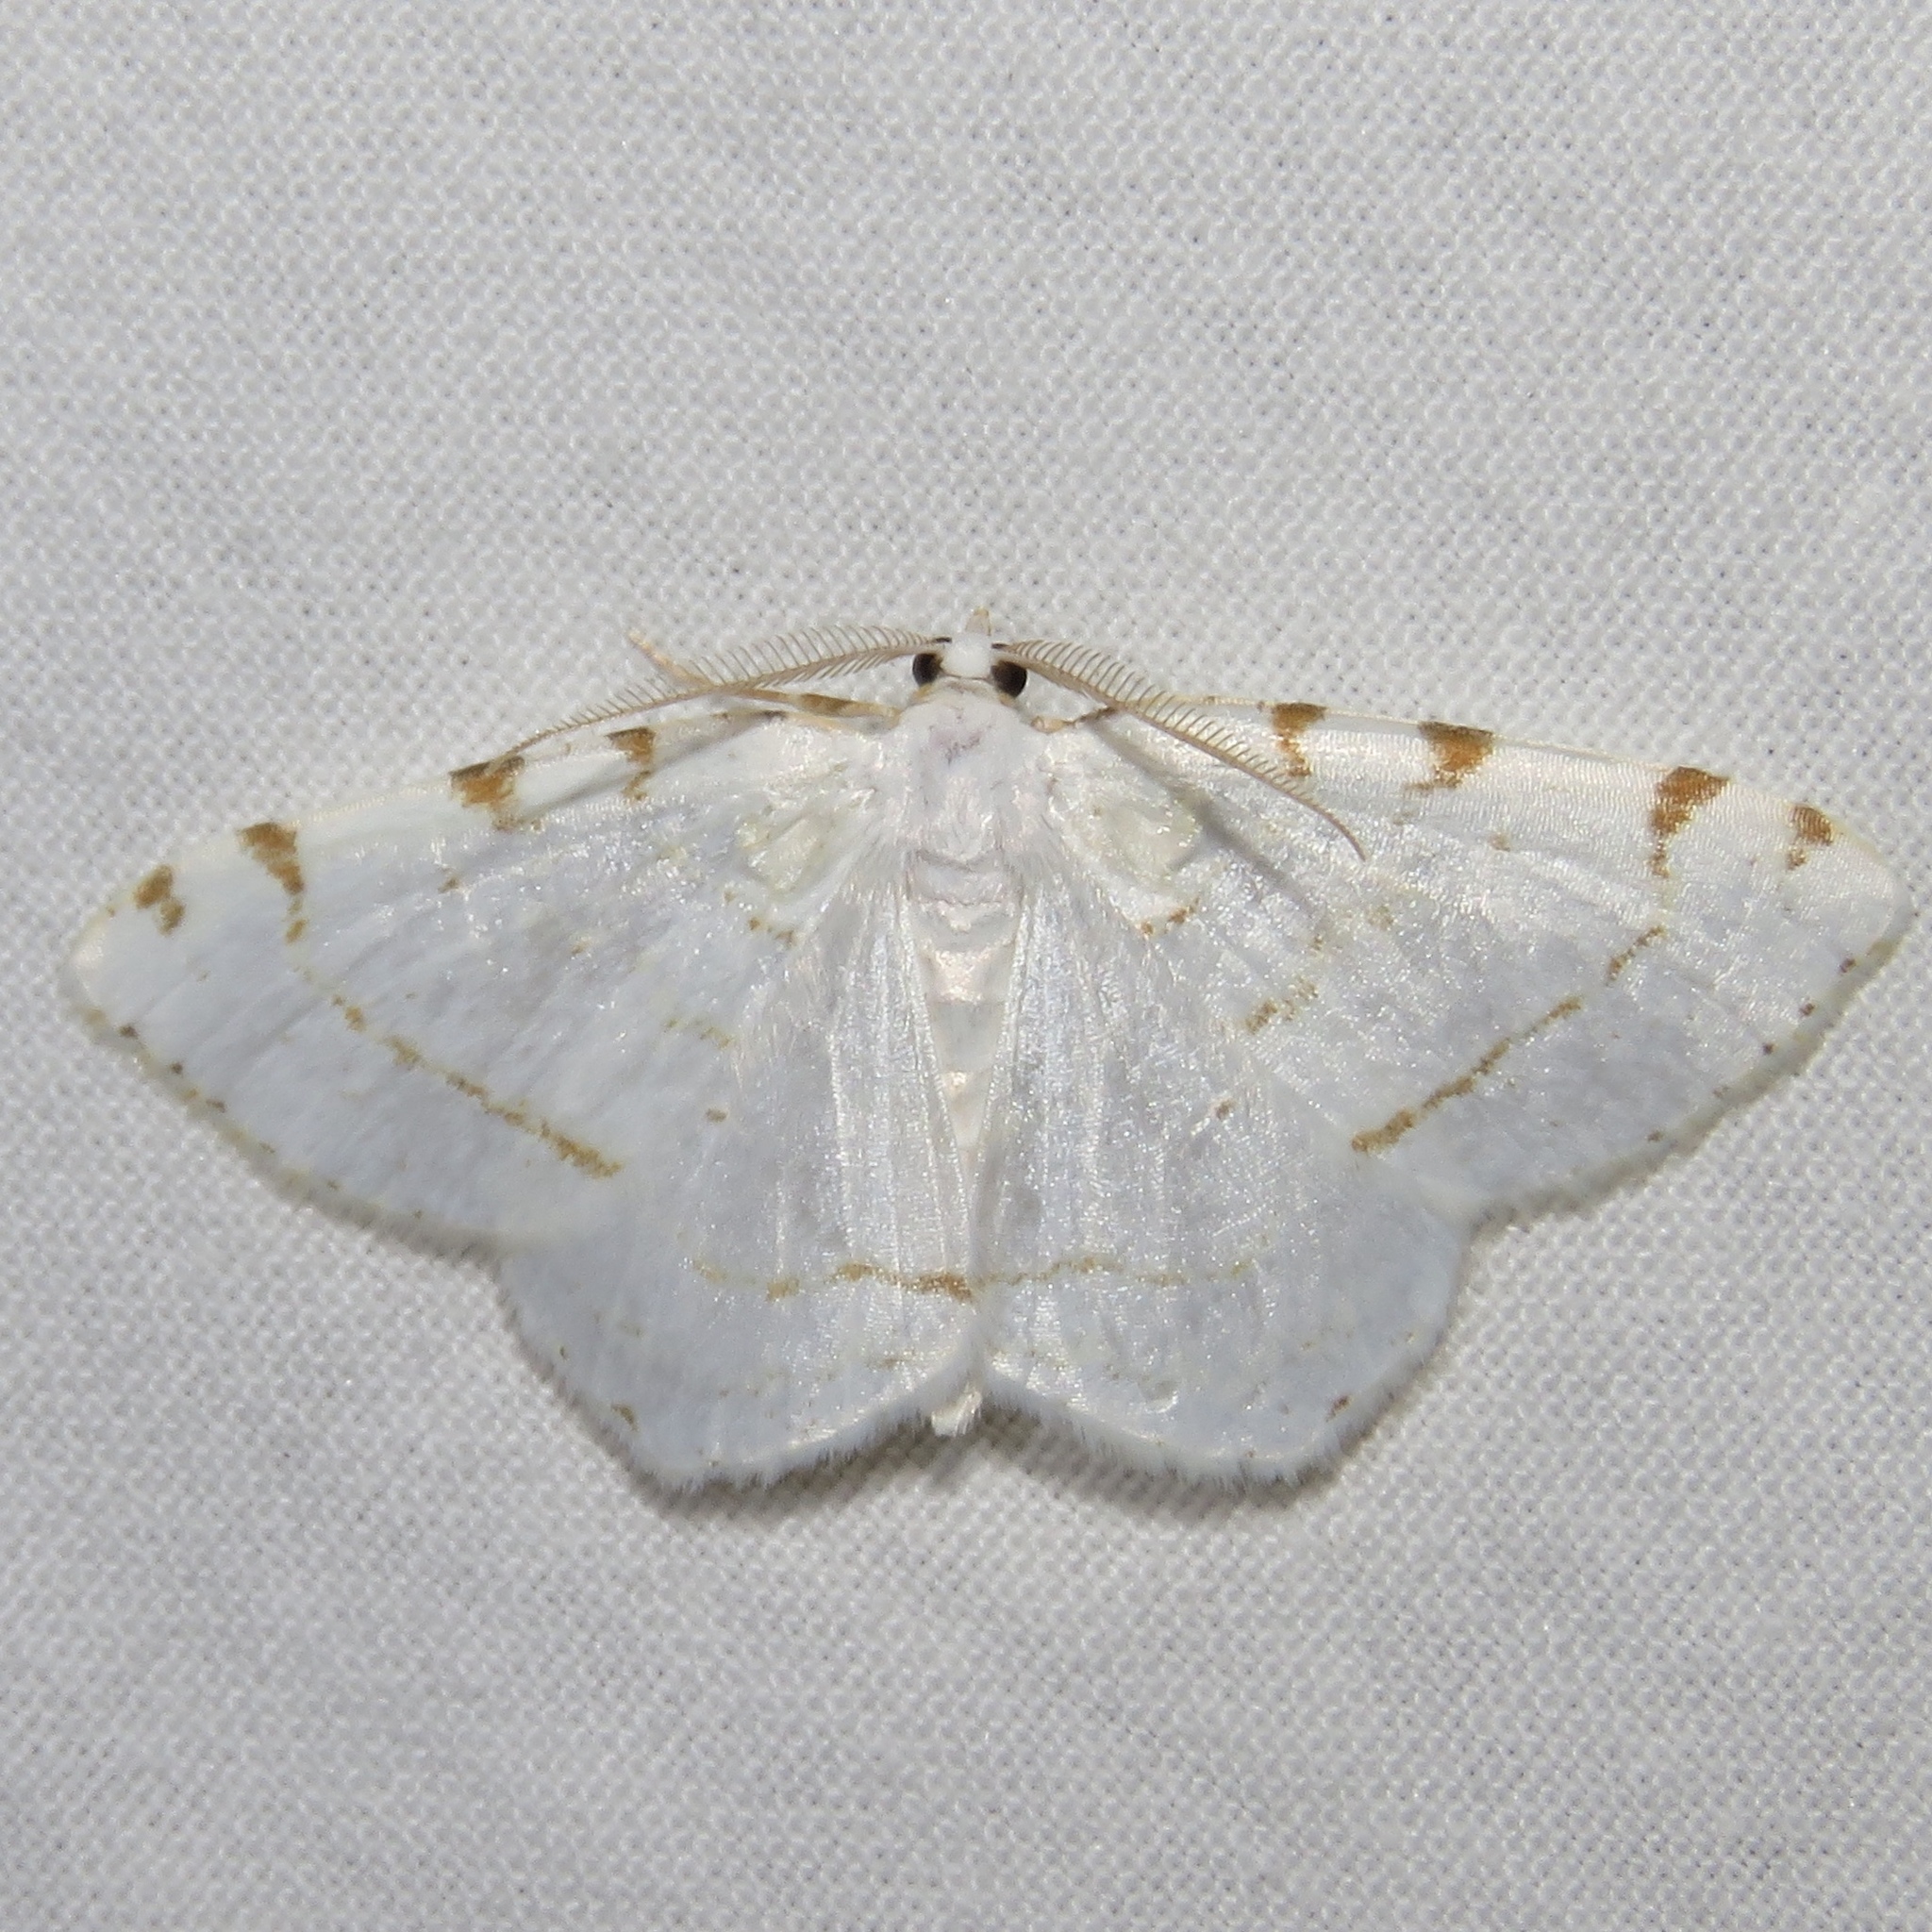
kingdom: Animalia
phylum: Arthropoda
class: Insecta
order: Lepidoptera
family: Geometridae
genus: Macaria
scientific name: Macaria pustularia
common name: Lesser maple spanworm moth
